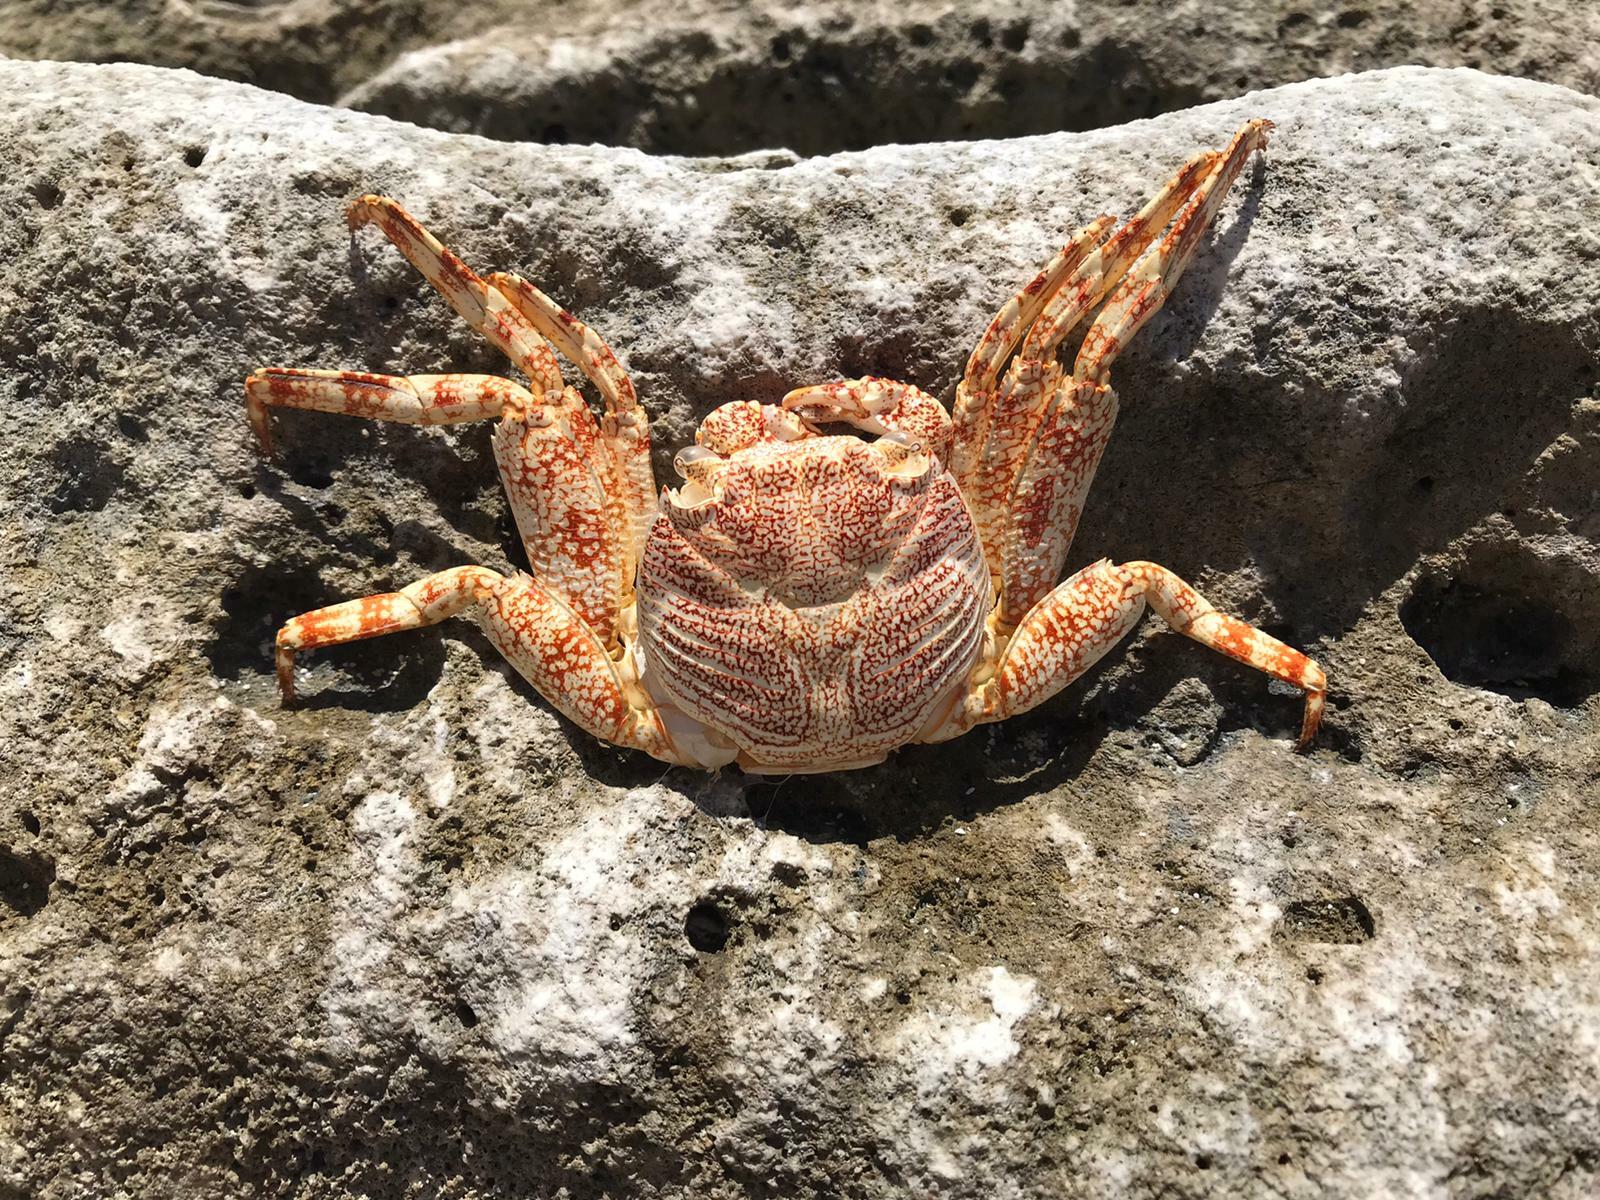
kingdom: Animalia
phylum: Arthropoda
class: Malacostraca
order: Decapoda
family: Grapsidae
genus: Grapsus
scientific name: Grapsus grapsus
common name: Sally lightfoot
